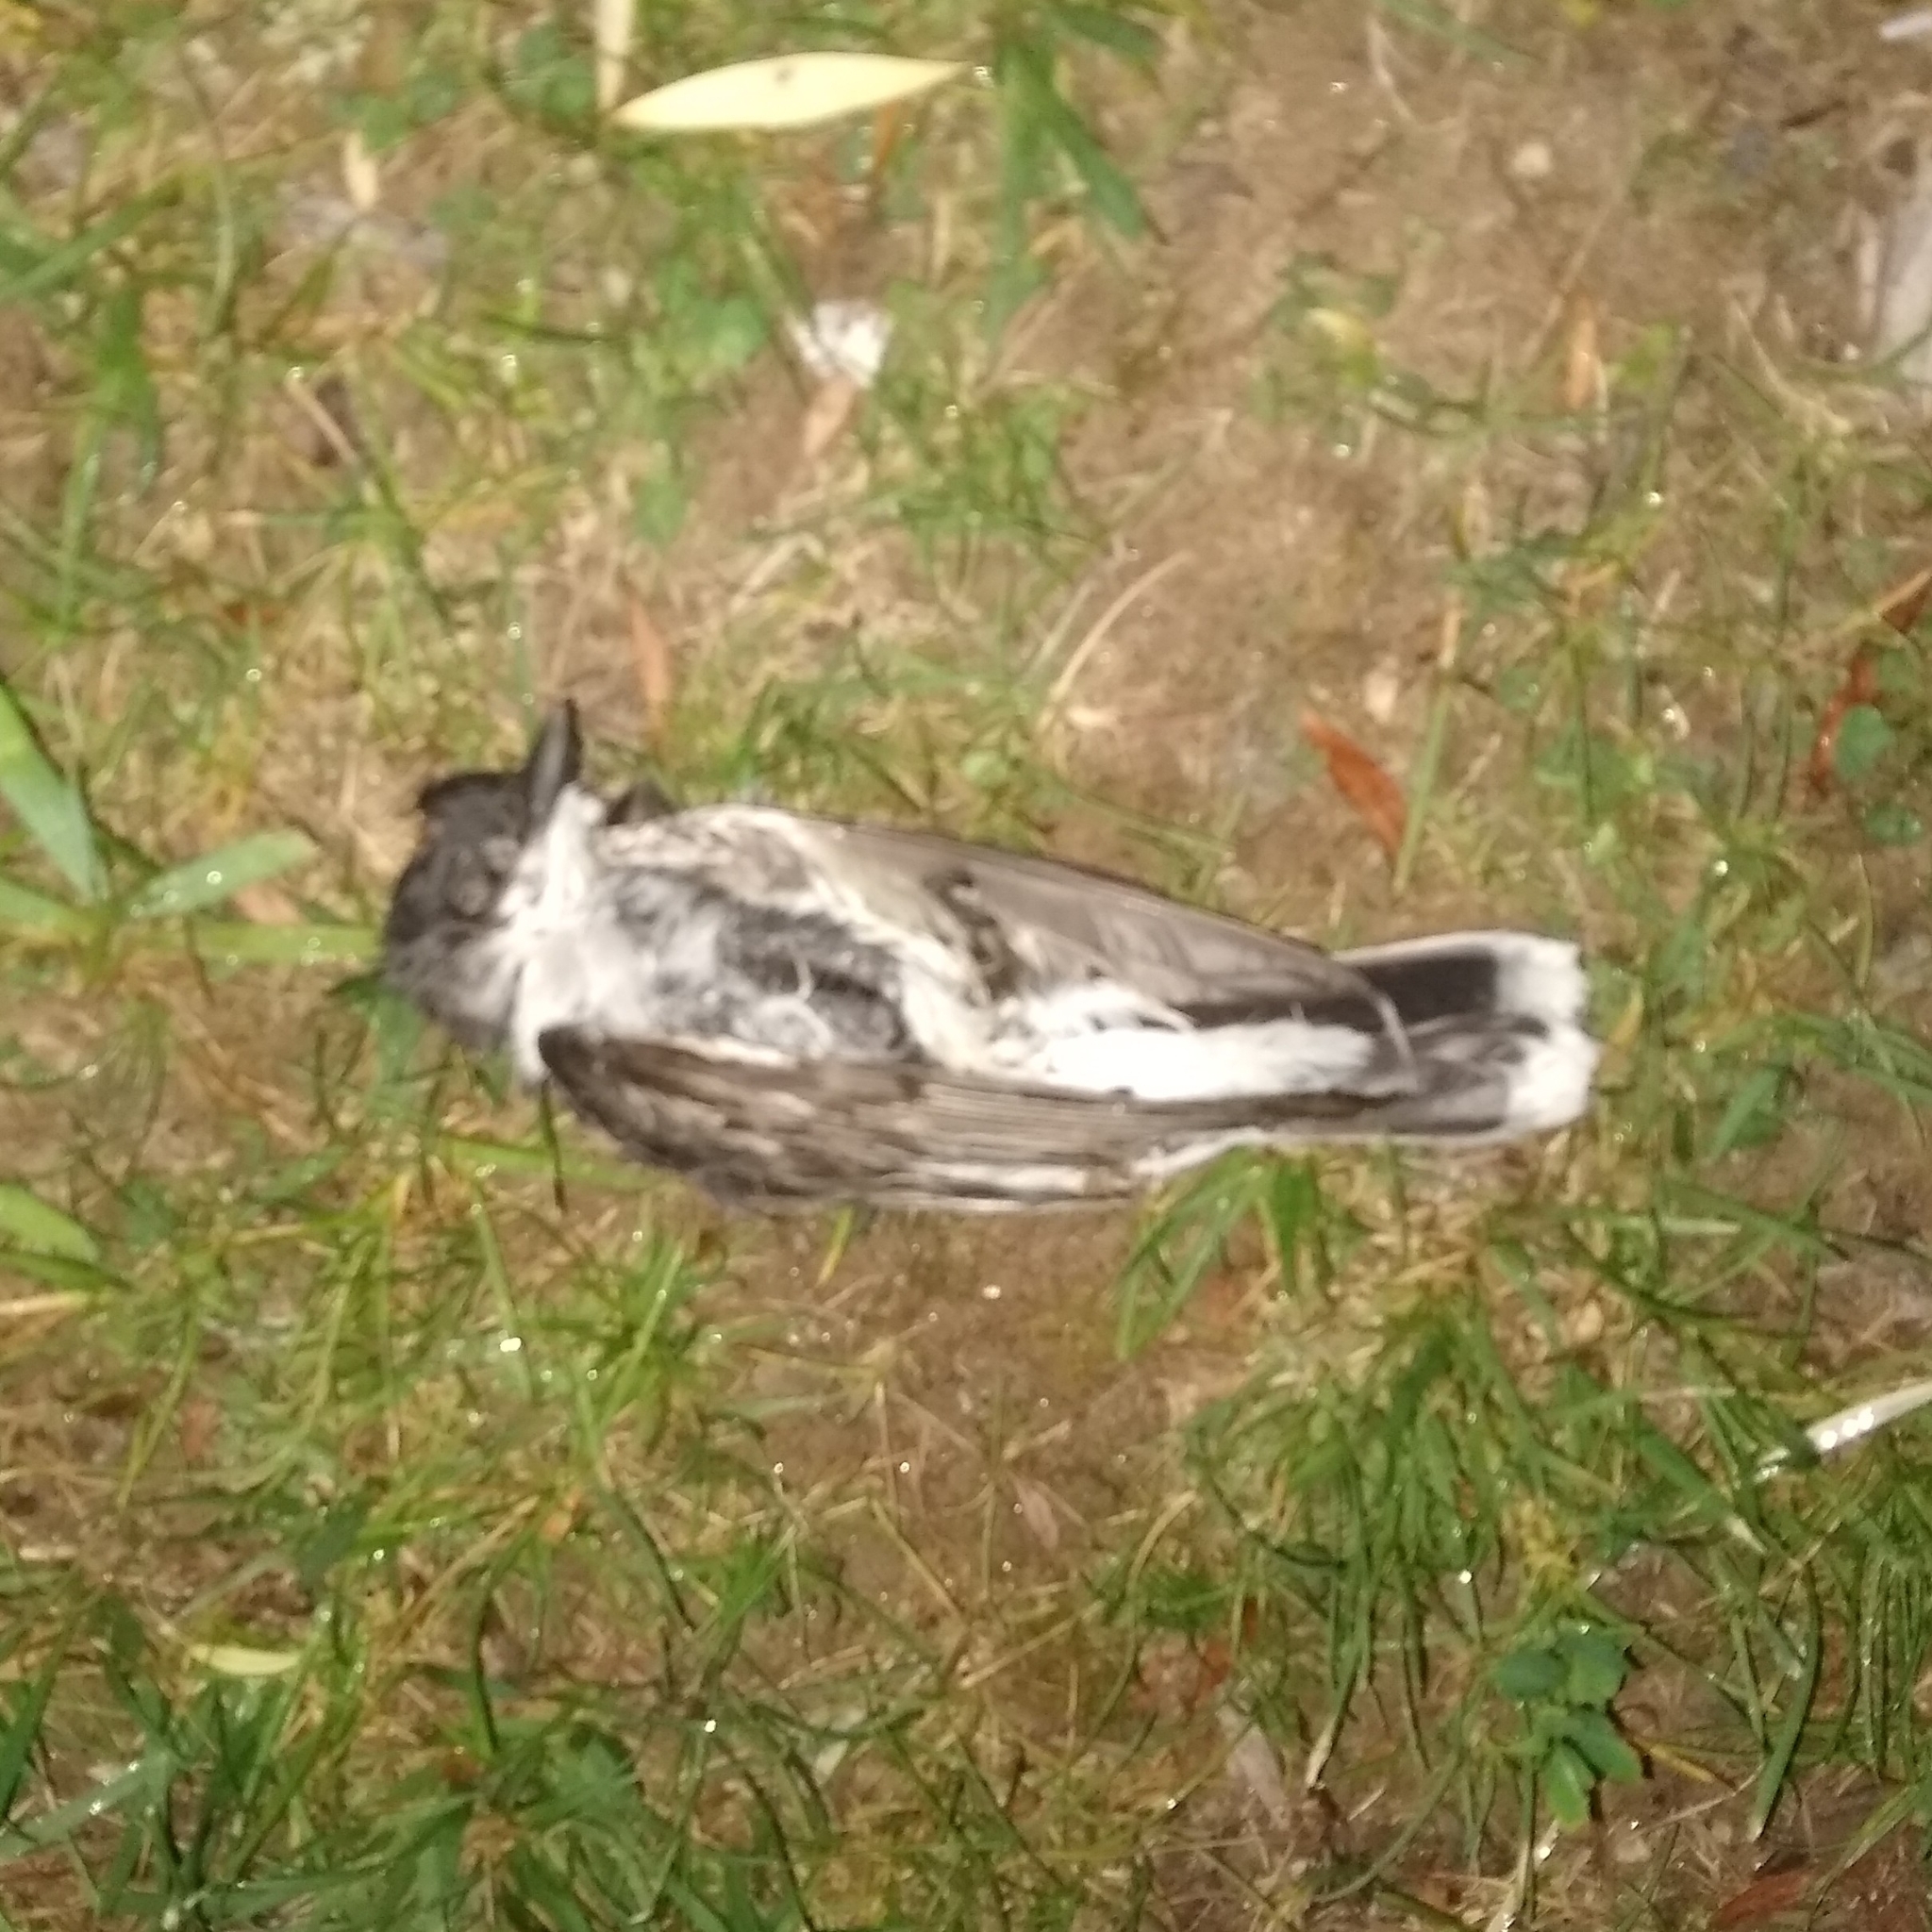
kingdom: Animalia
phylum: Chordata
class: Aves
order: Passeriformes
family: Tyrannidae
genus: Tyrannus
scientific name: Tyrannus tyrannus
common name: Eastern kingbird
